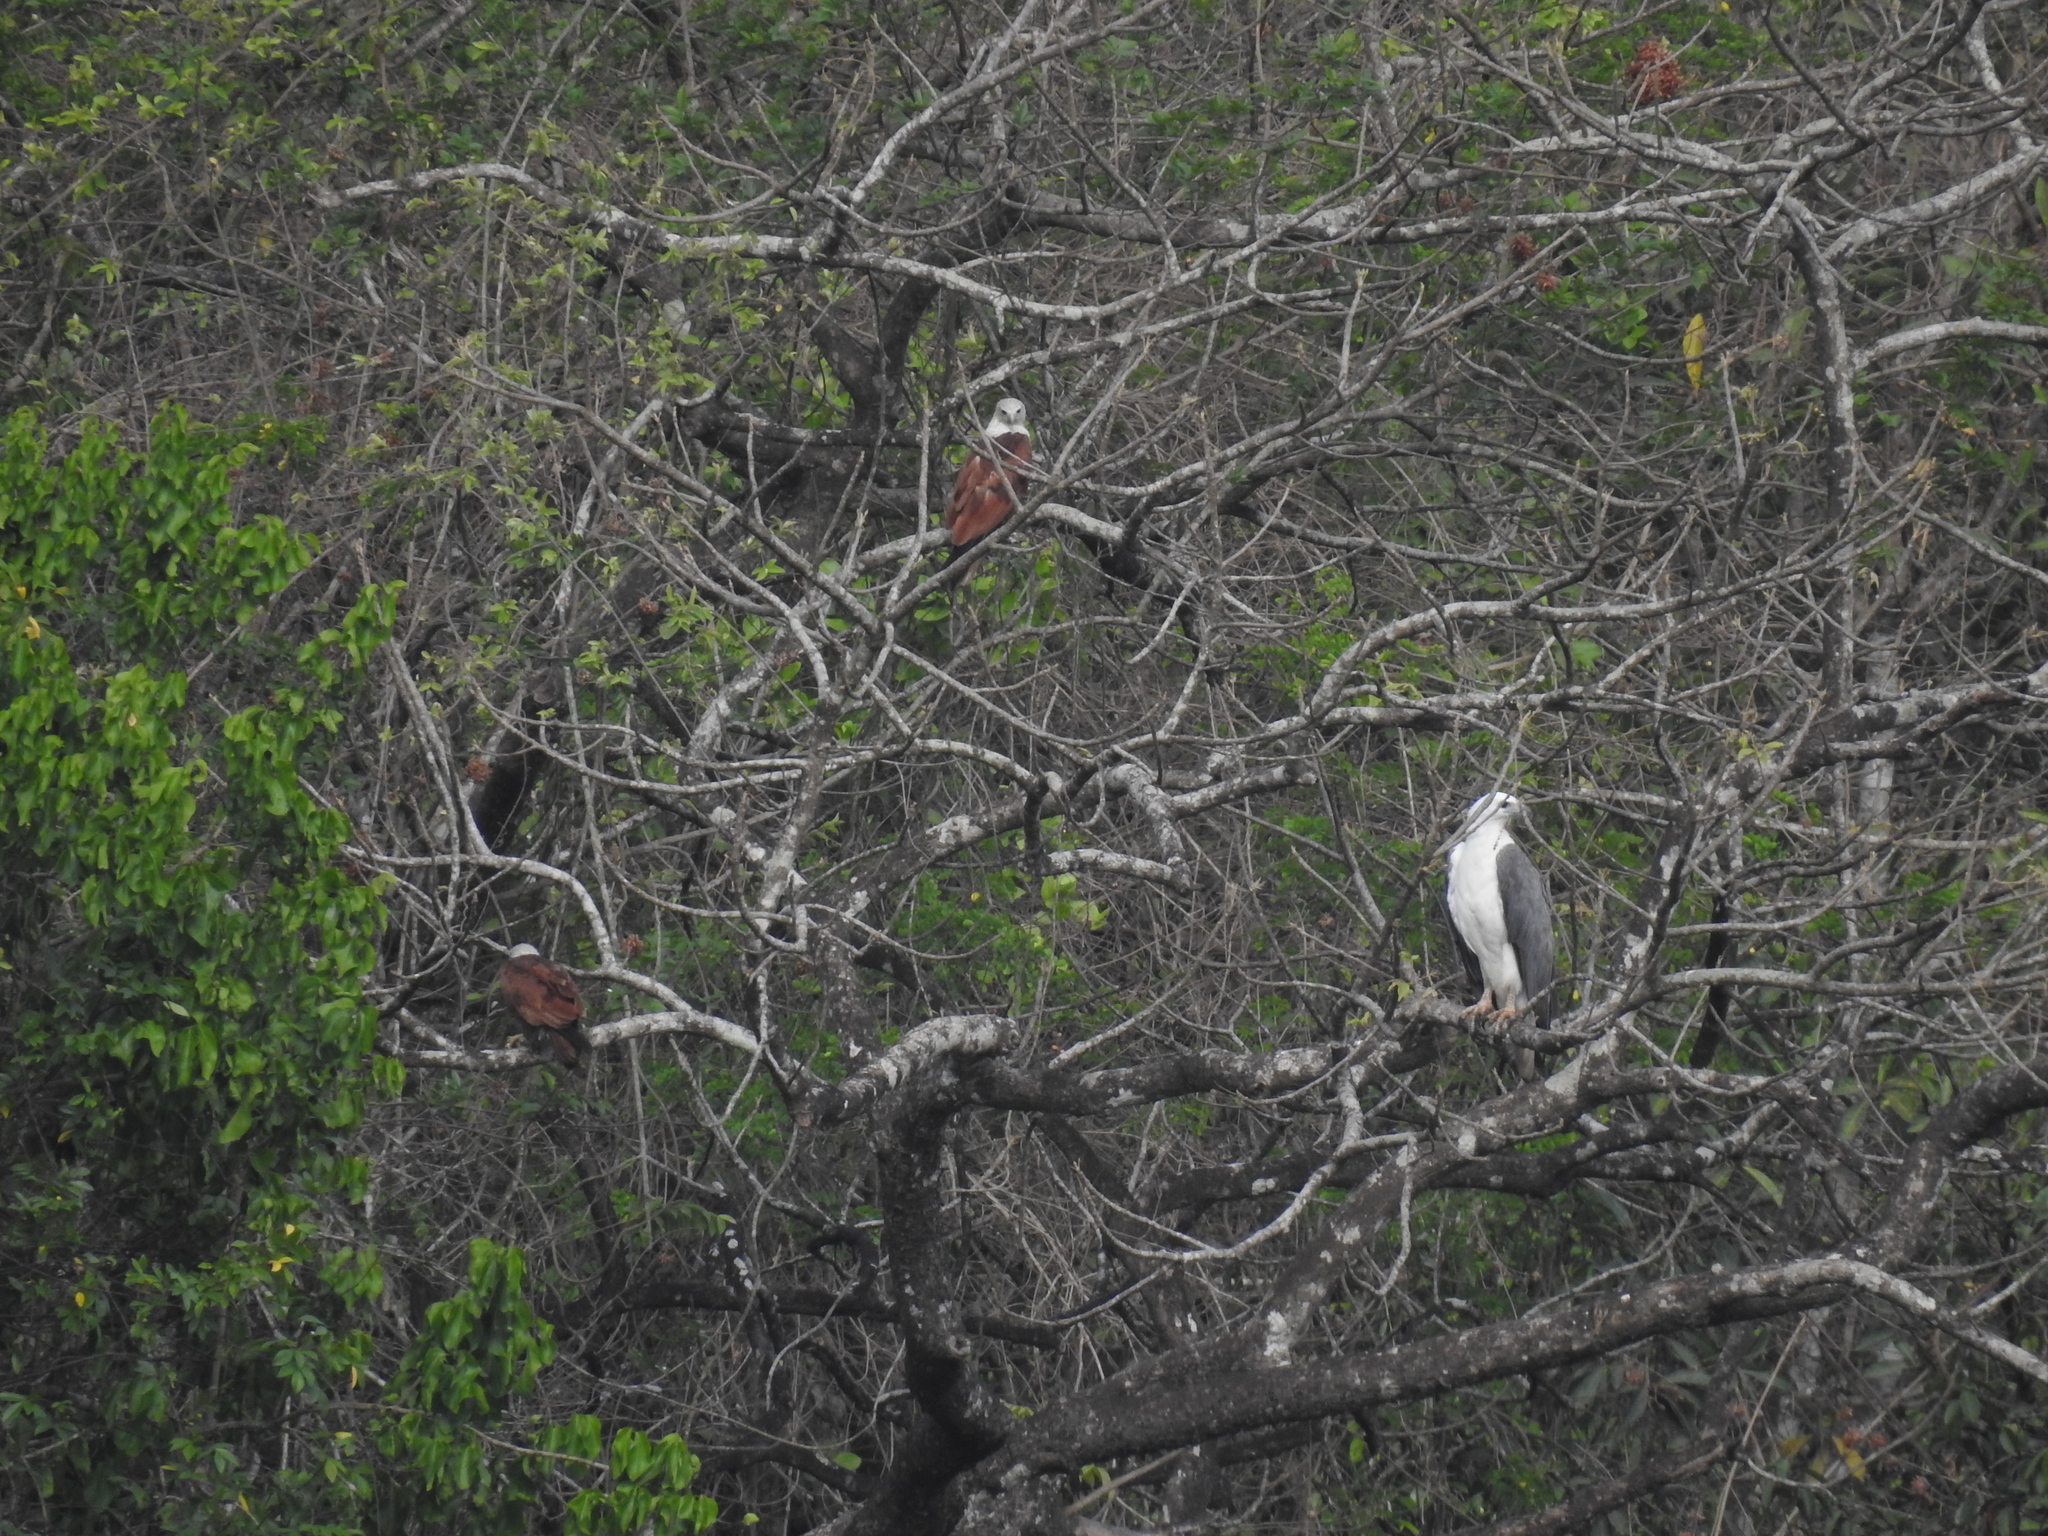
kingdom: Animalia
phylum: Chordata
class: Aves
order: Accipitriformes
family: Accipitridae
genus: Haliaeetus
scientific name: Haliaeetus leucogaster
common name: White-bellied sea eagle
